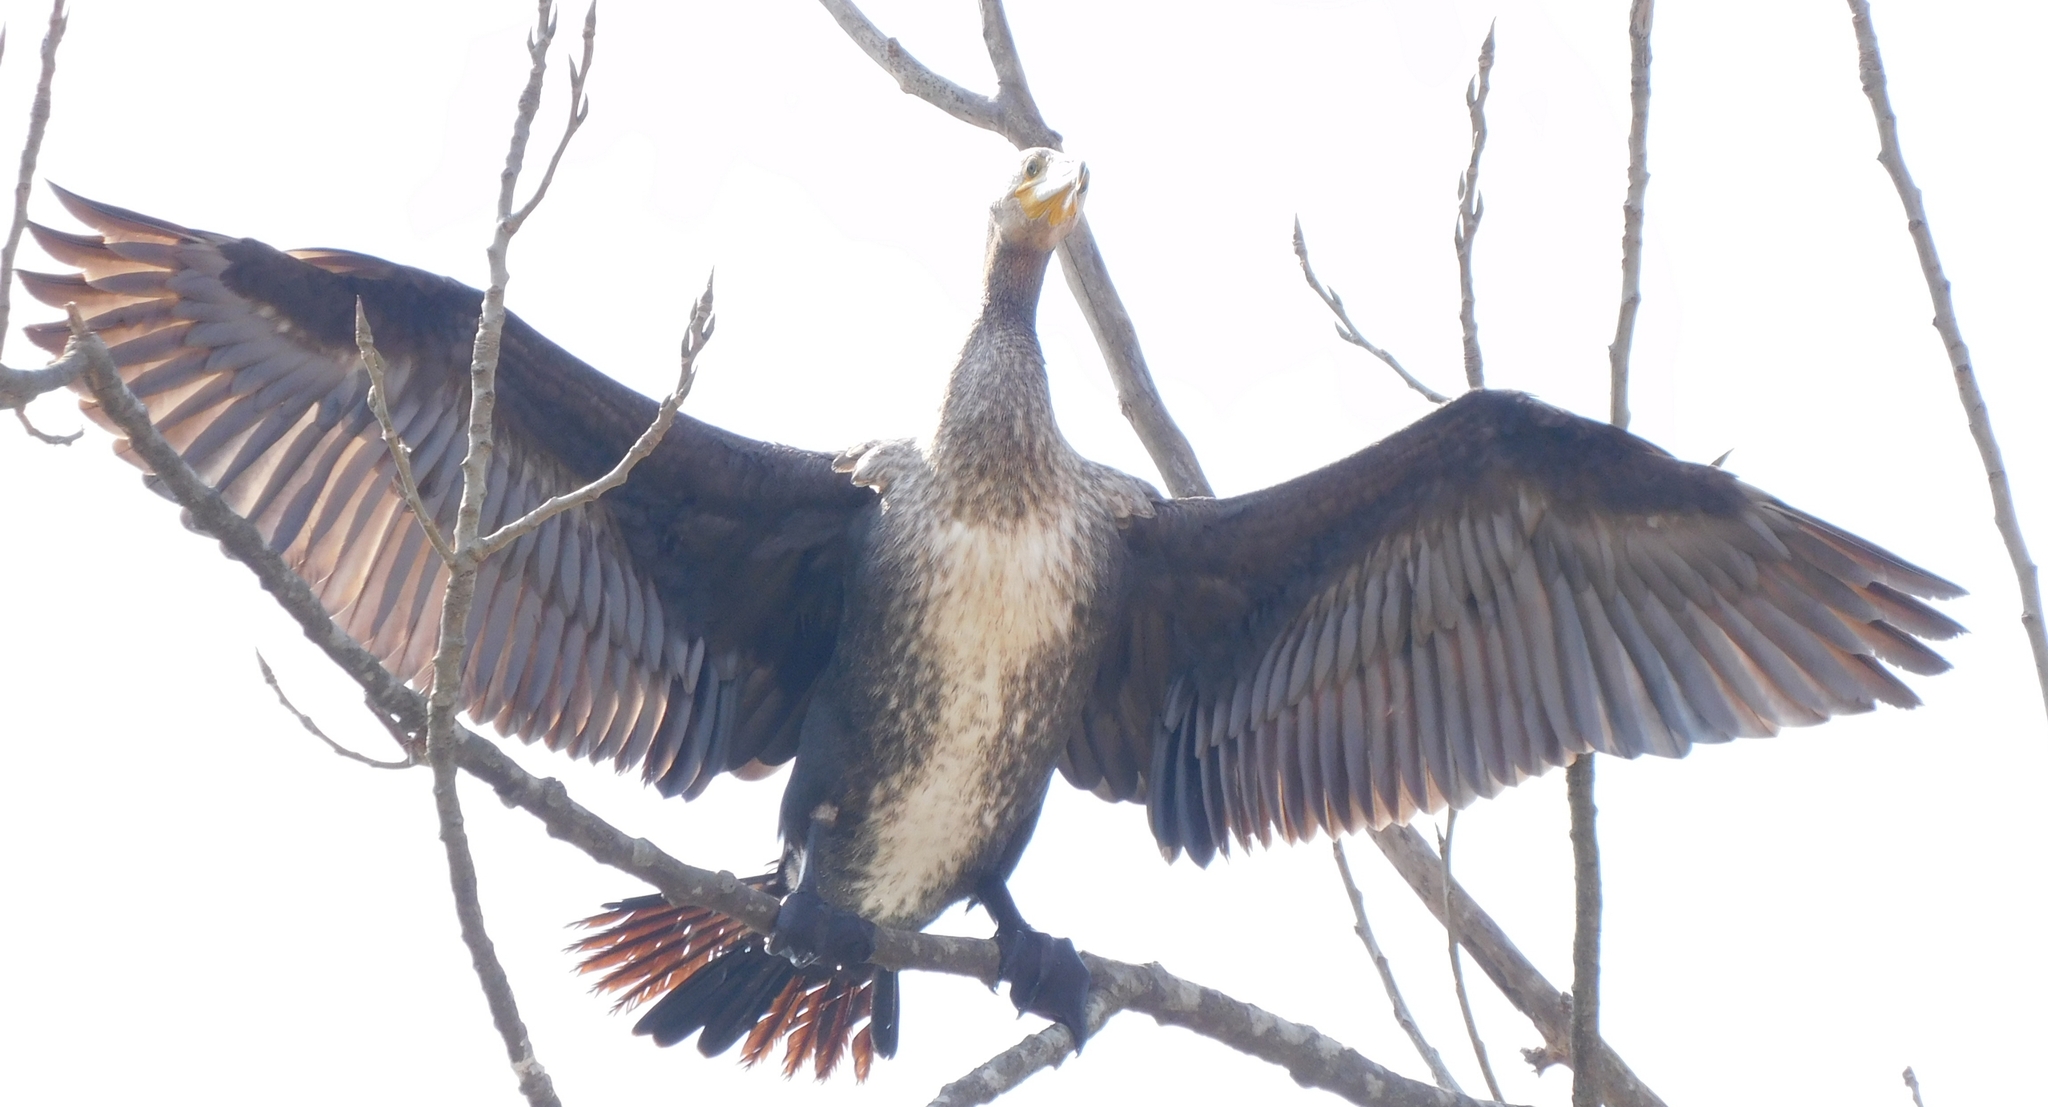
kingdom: Animalia
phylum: Chordata
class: Aves
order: Suliformes
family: Phalacrocoracidae
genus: Phalacrocorax
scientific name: Phalacrocorax carbo
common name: Great cormorant
